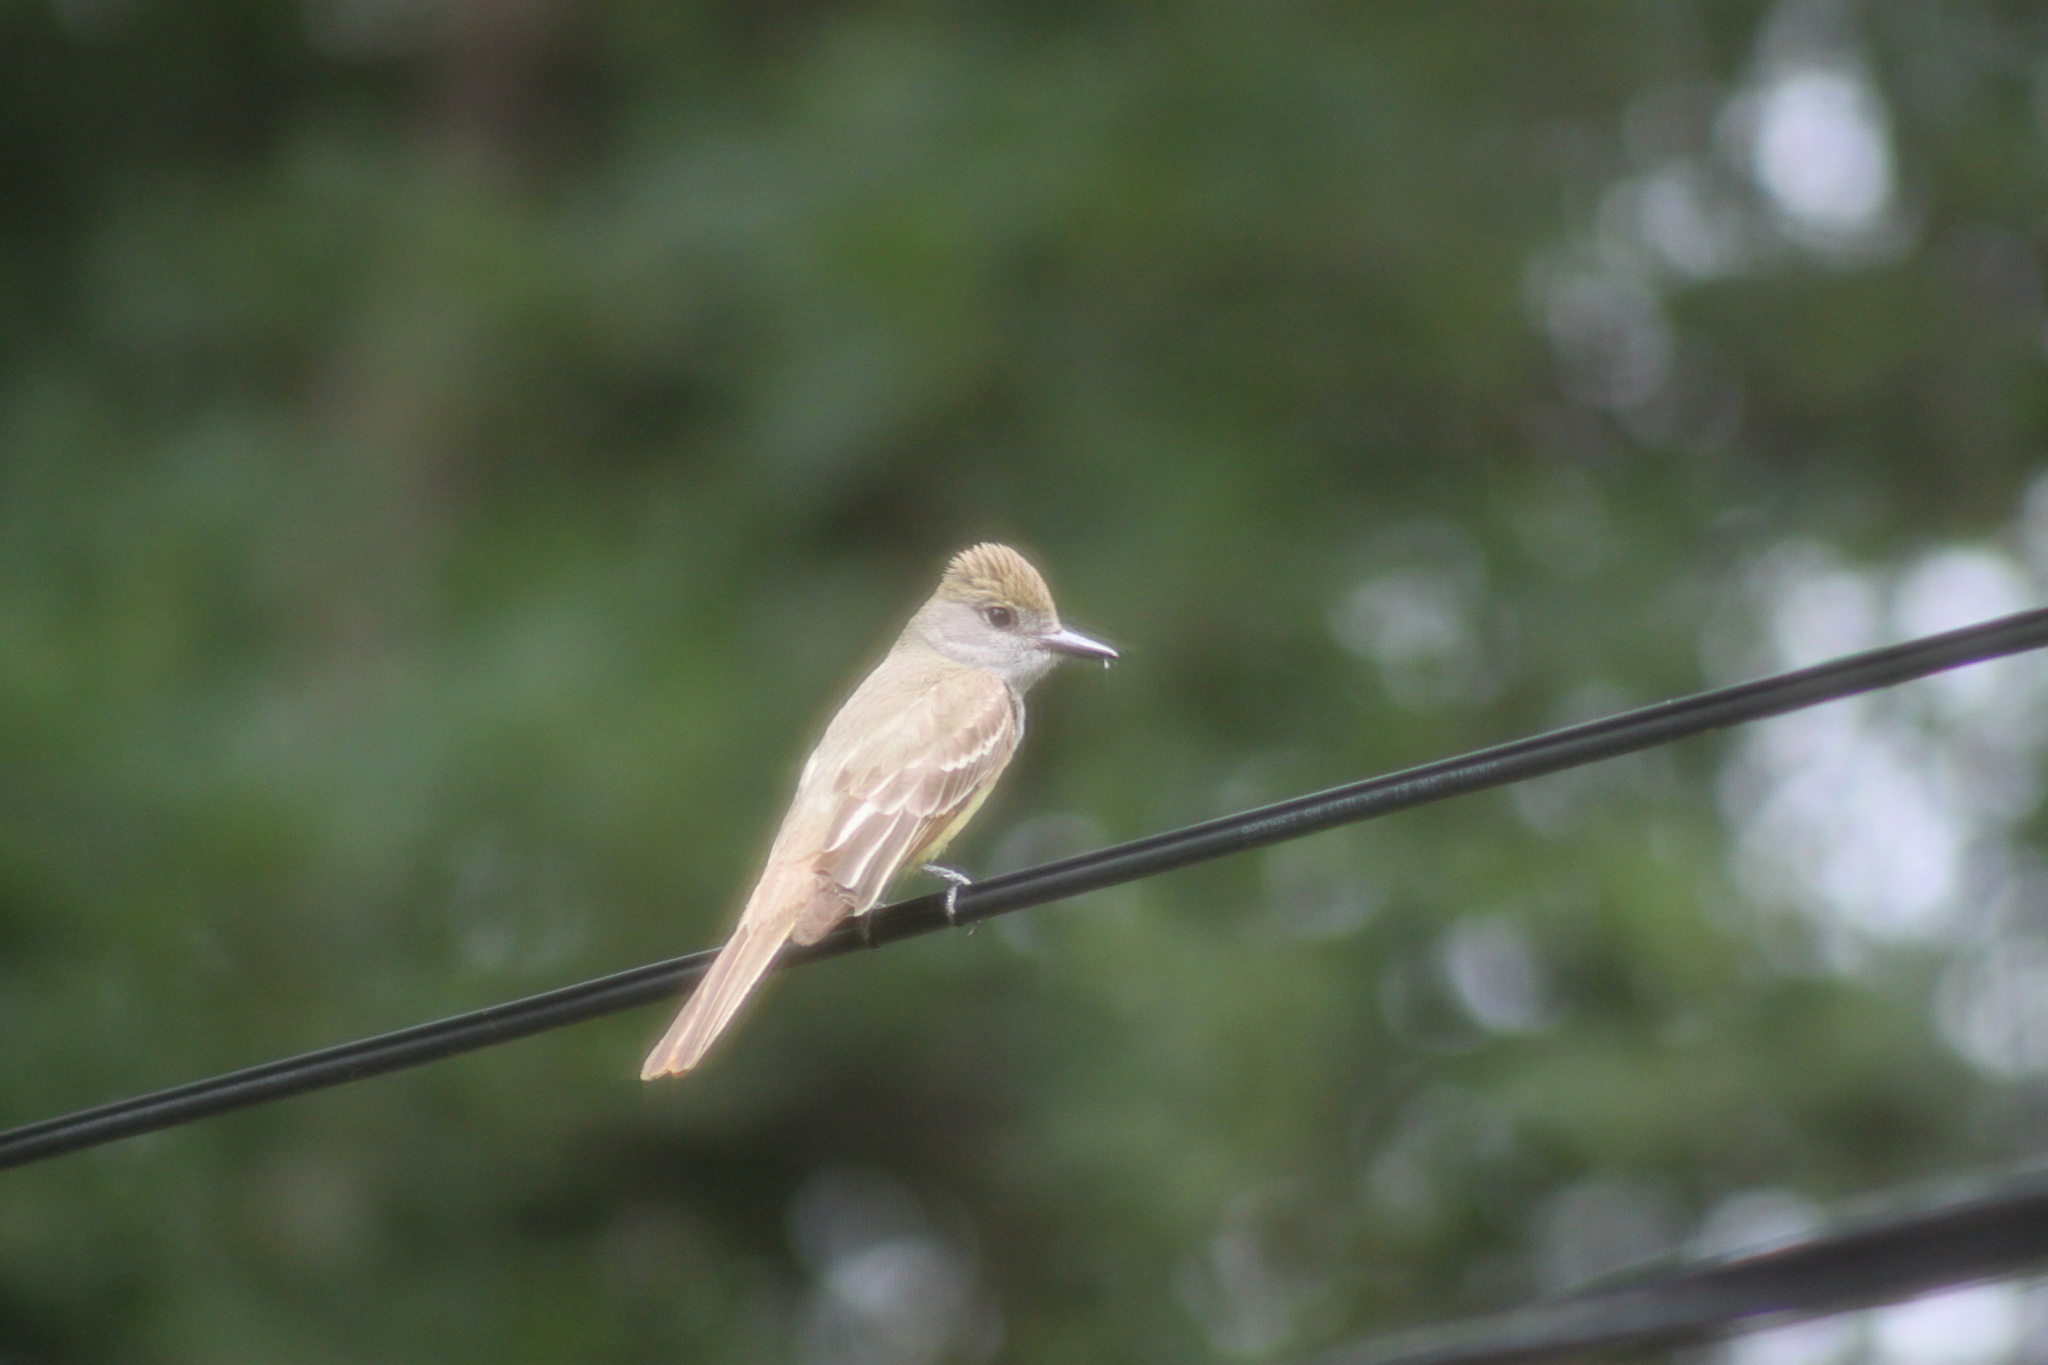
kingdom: Animalia
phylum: Chordata
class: Aves
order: Passeriformes
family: Tyrannidae
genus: Myiarchus
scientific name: Myiarchus crinitus
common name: Great crested flycatcher
